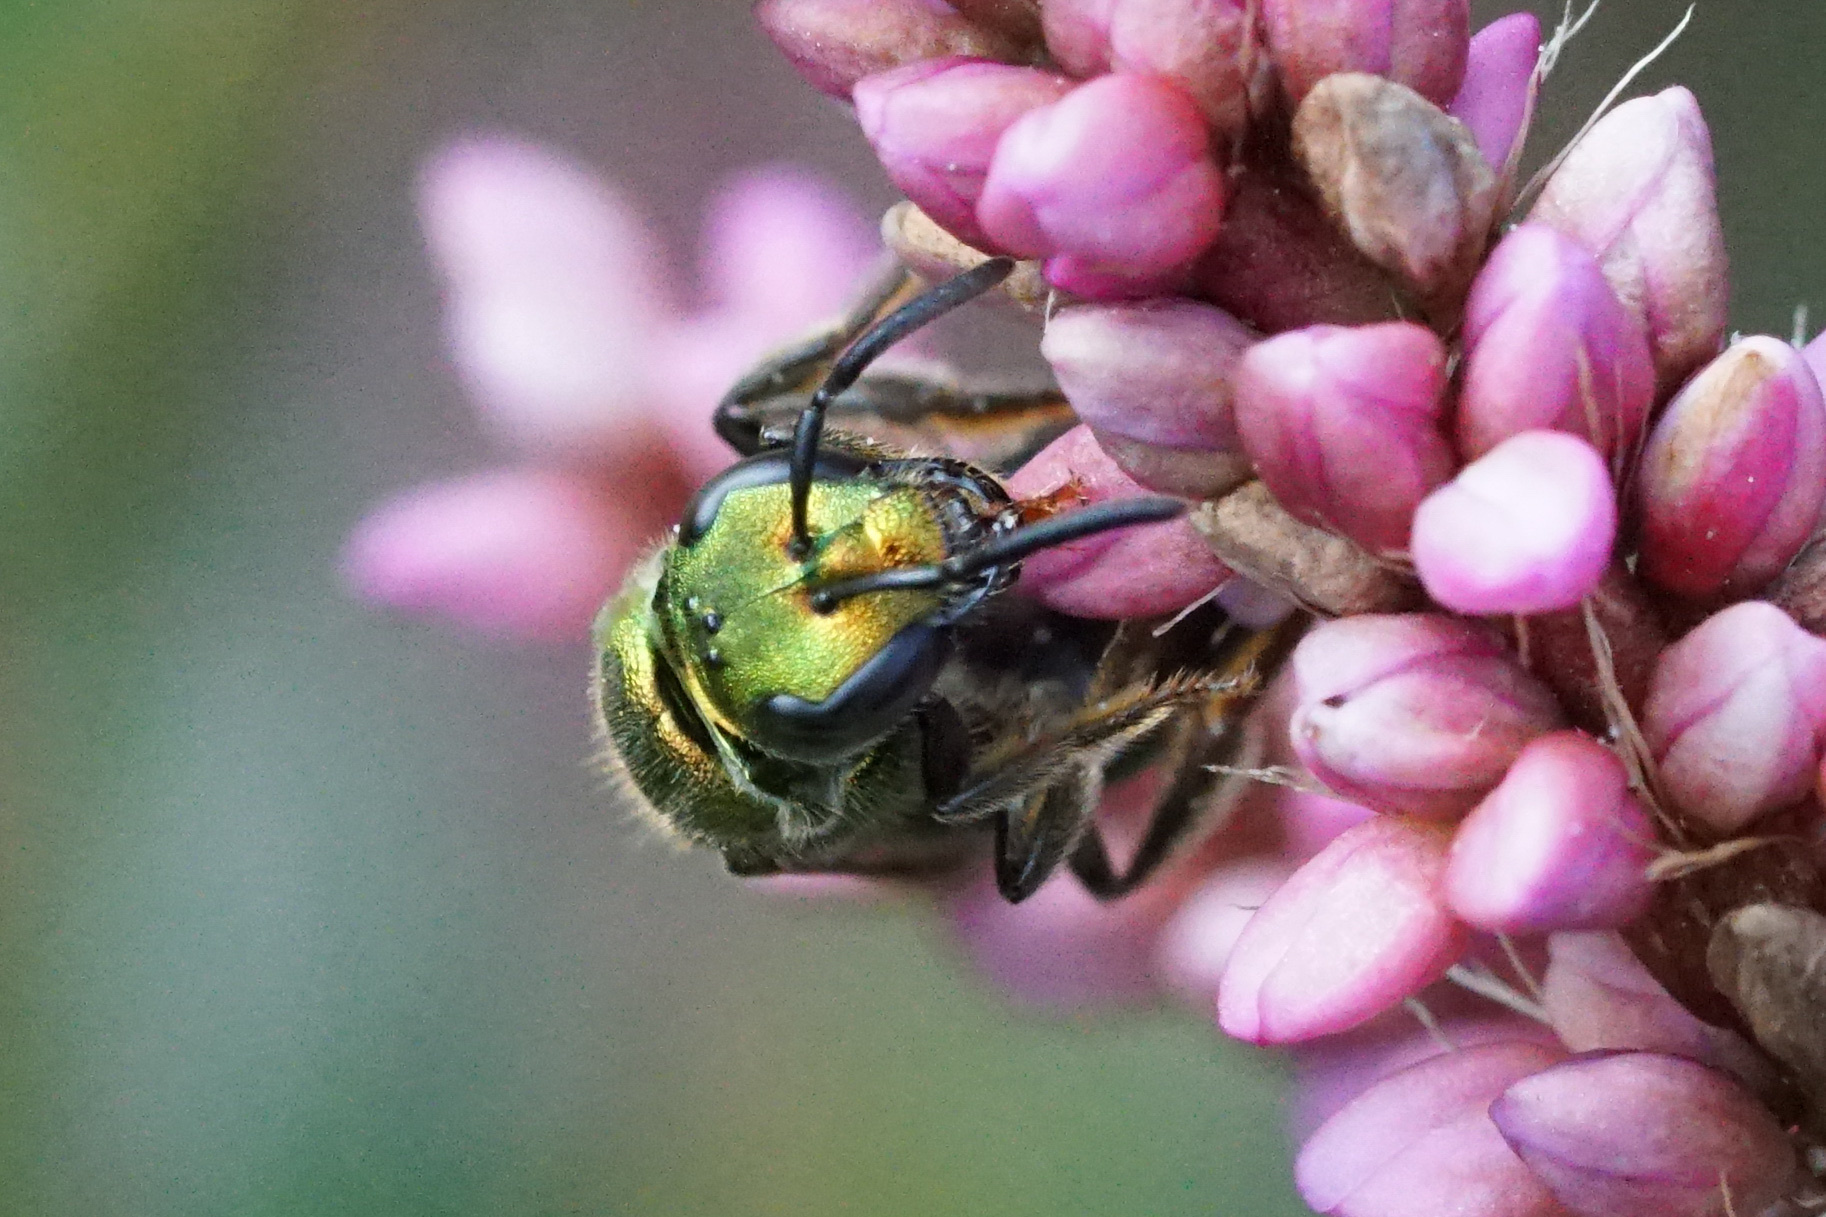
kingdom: Animalia
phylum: Arthropoda
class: Insecta
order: Hymenoptera
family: Halictidae
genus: Augochlora
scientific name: Augochlora pura
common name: Pure green sweat bee
